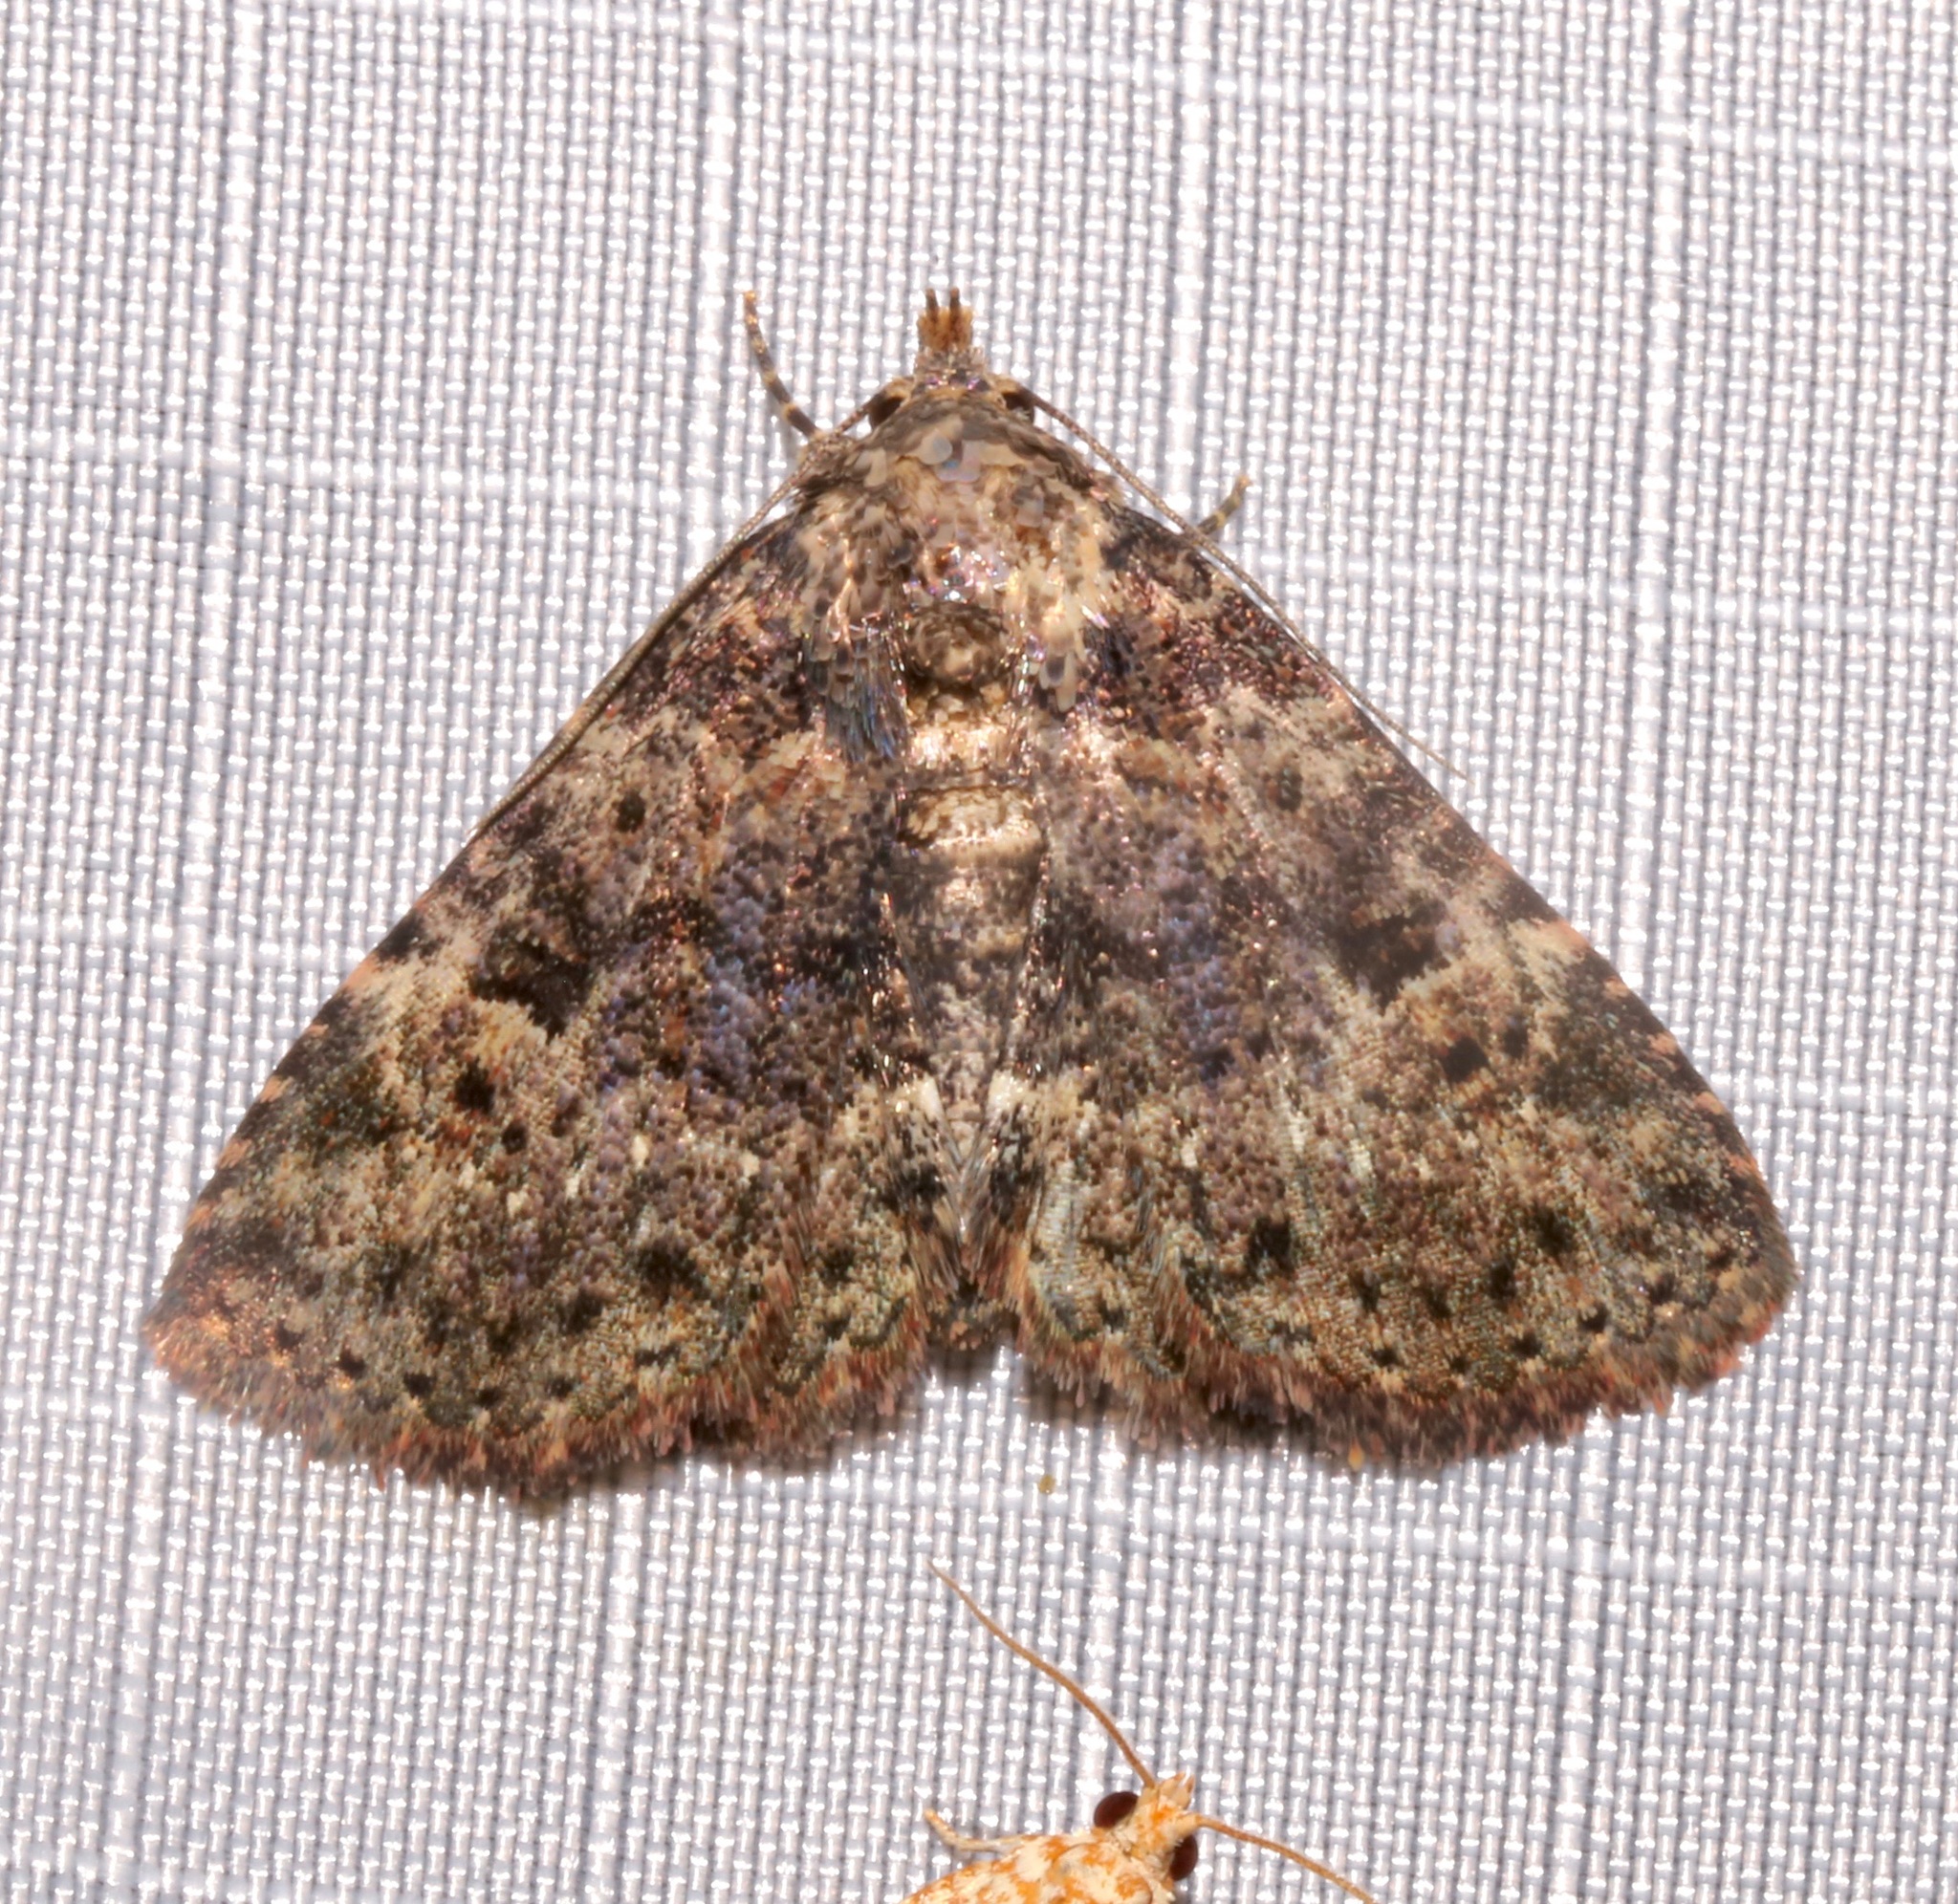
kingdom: Animalia
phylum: Arthropoda
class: Insecta
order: Lepidoptera
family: Erebidae
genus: Metalectra
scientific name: Metalectra discalis
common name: Common fungus moth
